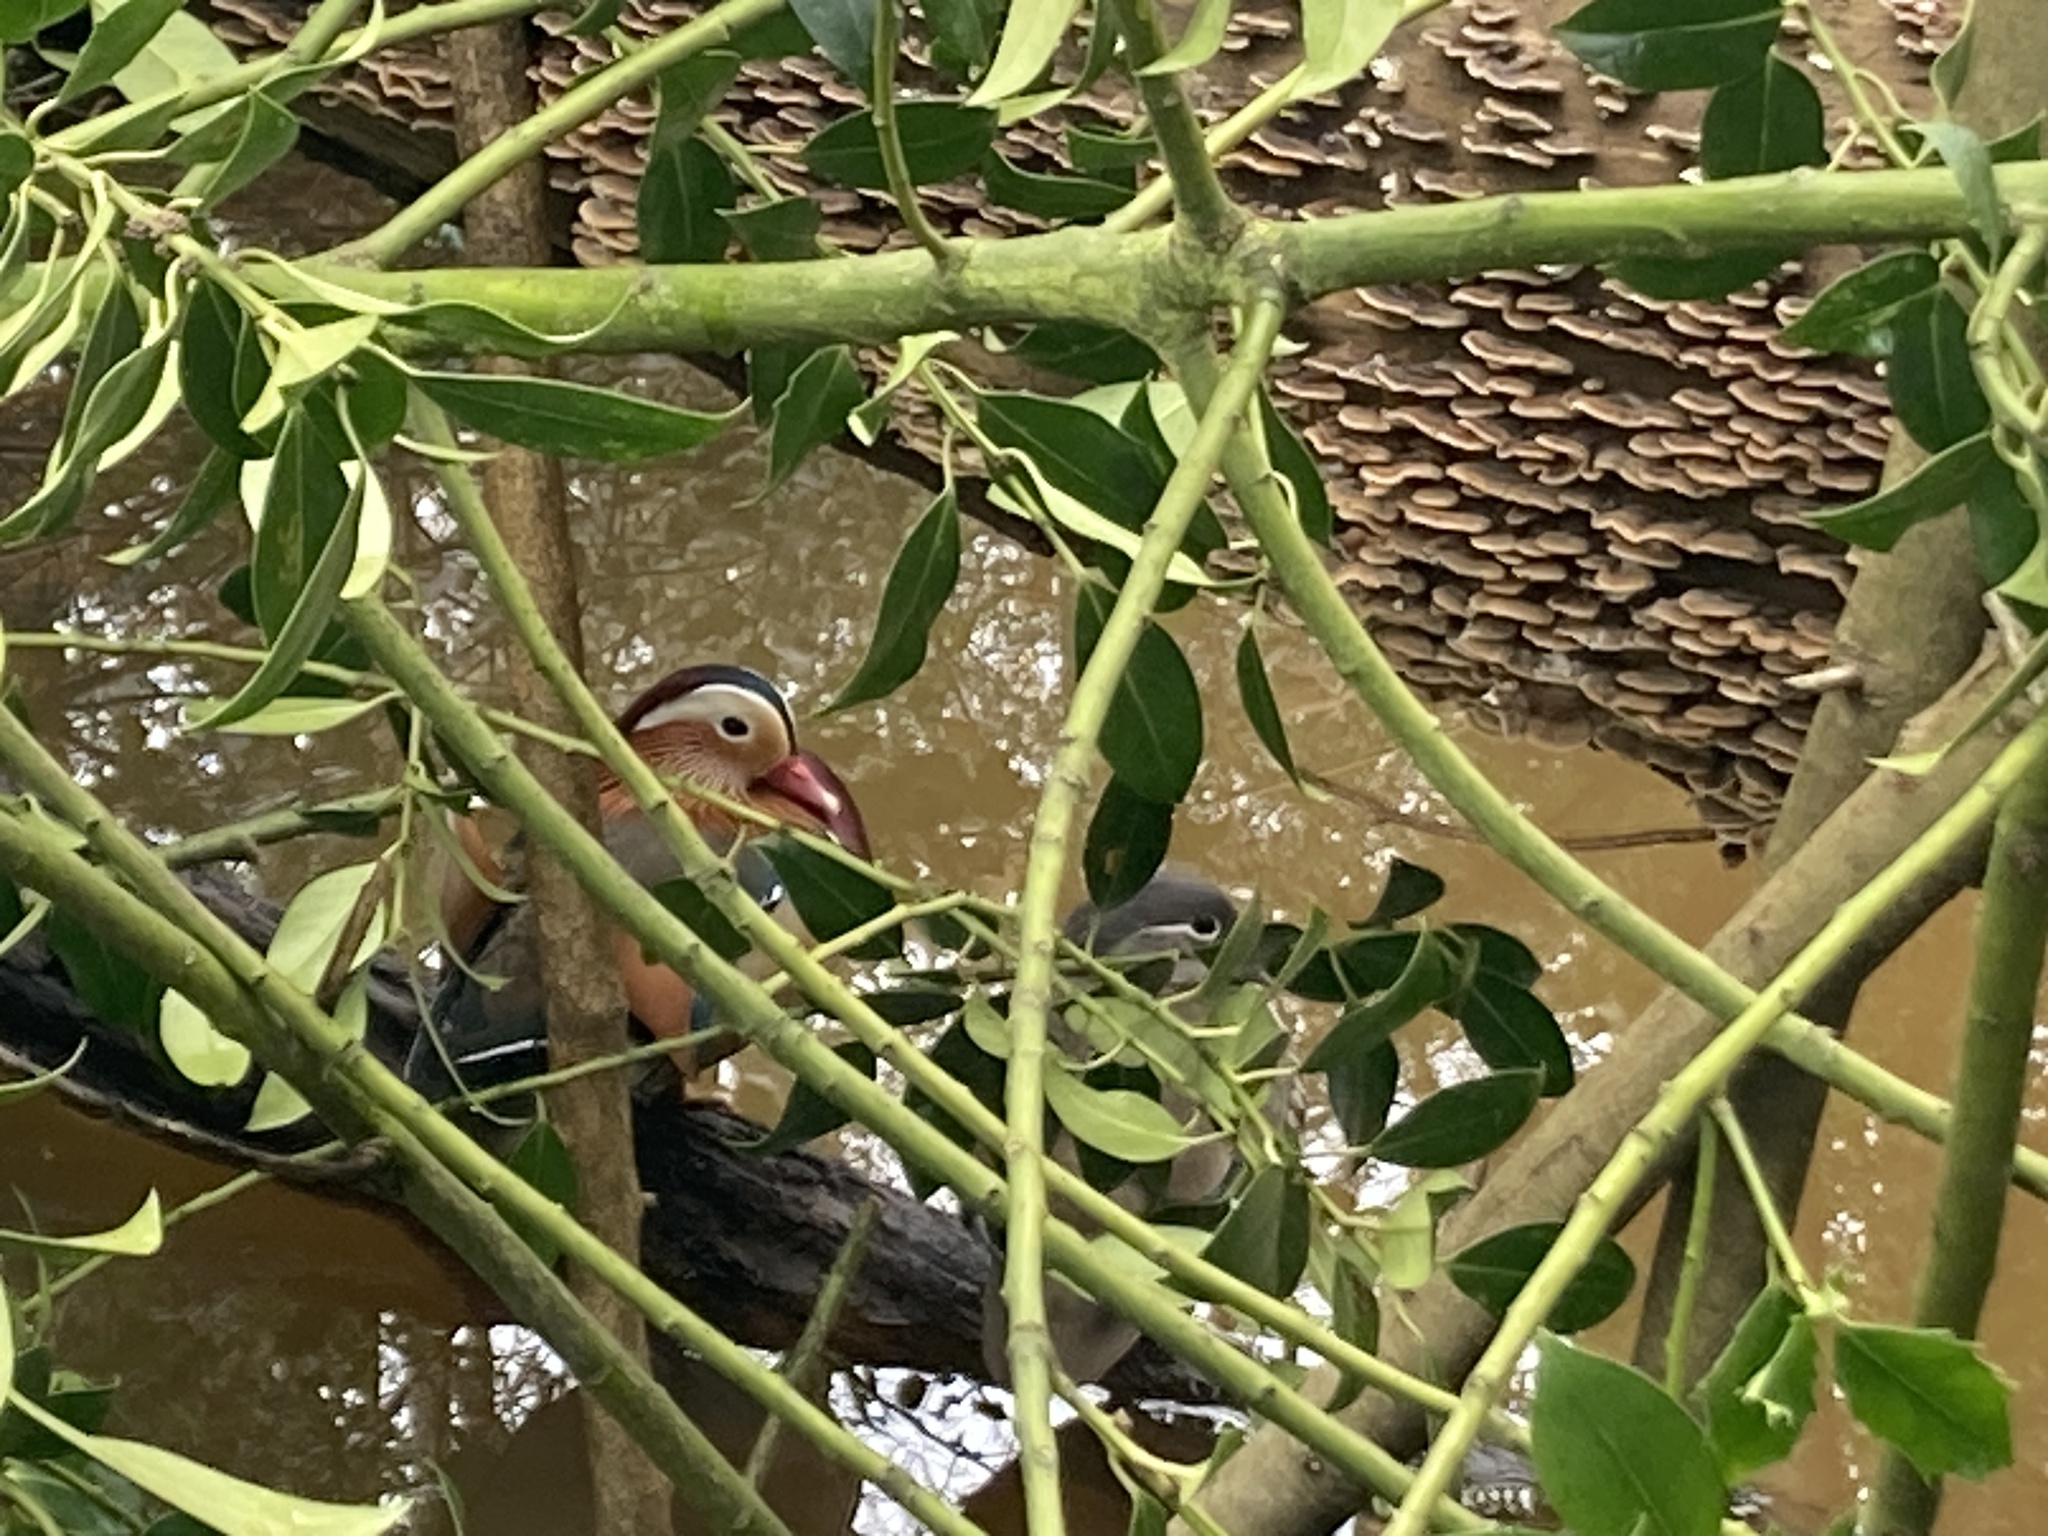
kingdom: Animalia
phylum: Chordata
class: Aves
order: Anseriformes
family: Anatidae
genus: Aix
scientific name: Aix galericulata
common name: Mandarin duck
